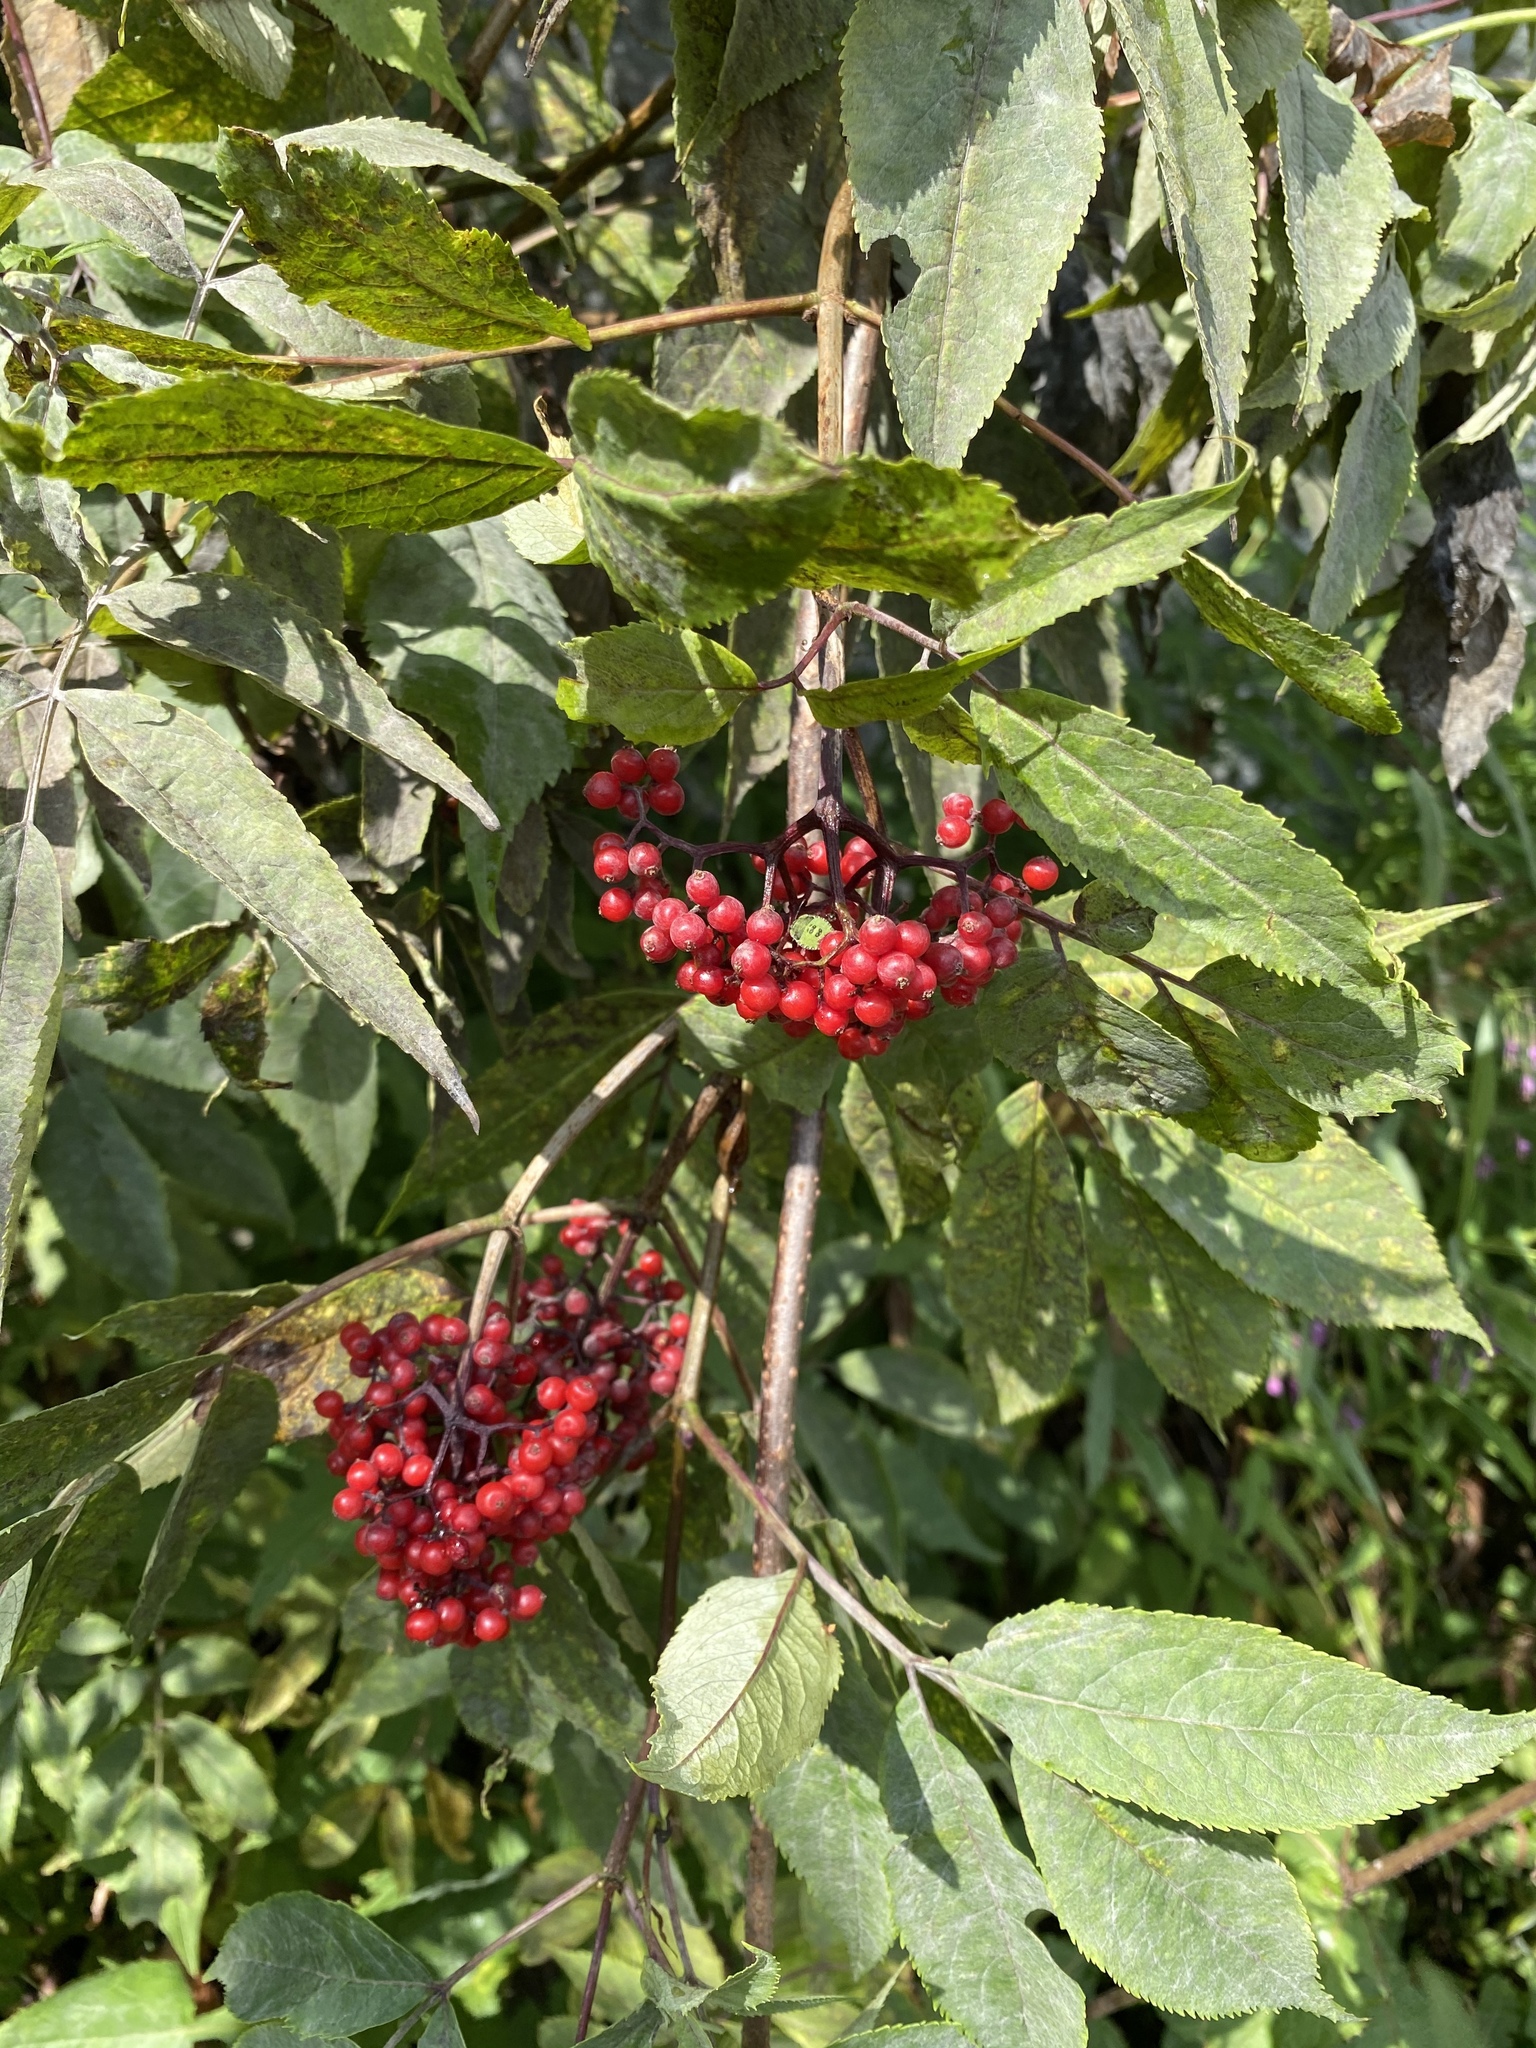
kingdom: Plantae
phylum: Tracheophyta
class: Magnoliopsida
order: Dipsacales
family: Viburnaceae
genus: Sambucus
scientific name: Sambucus racemosa
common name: Red-berried elder
